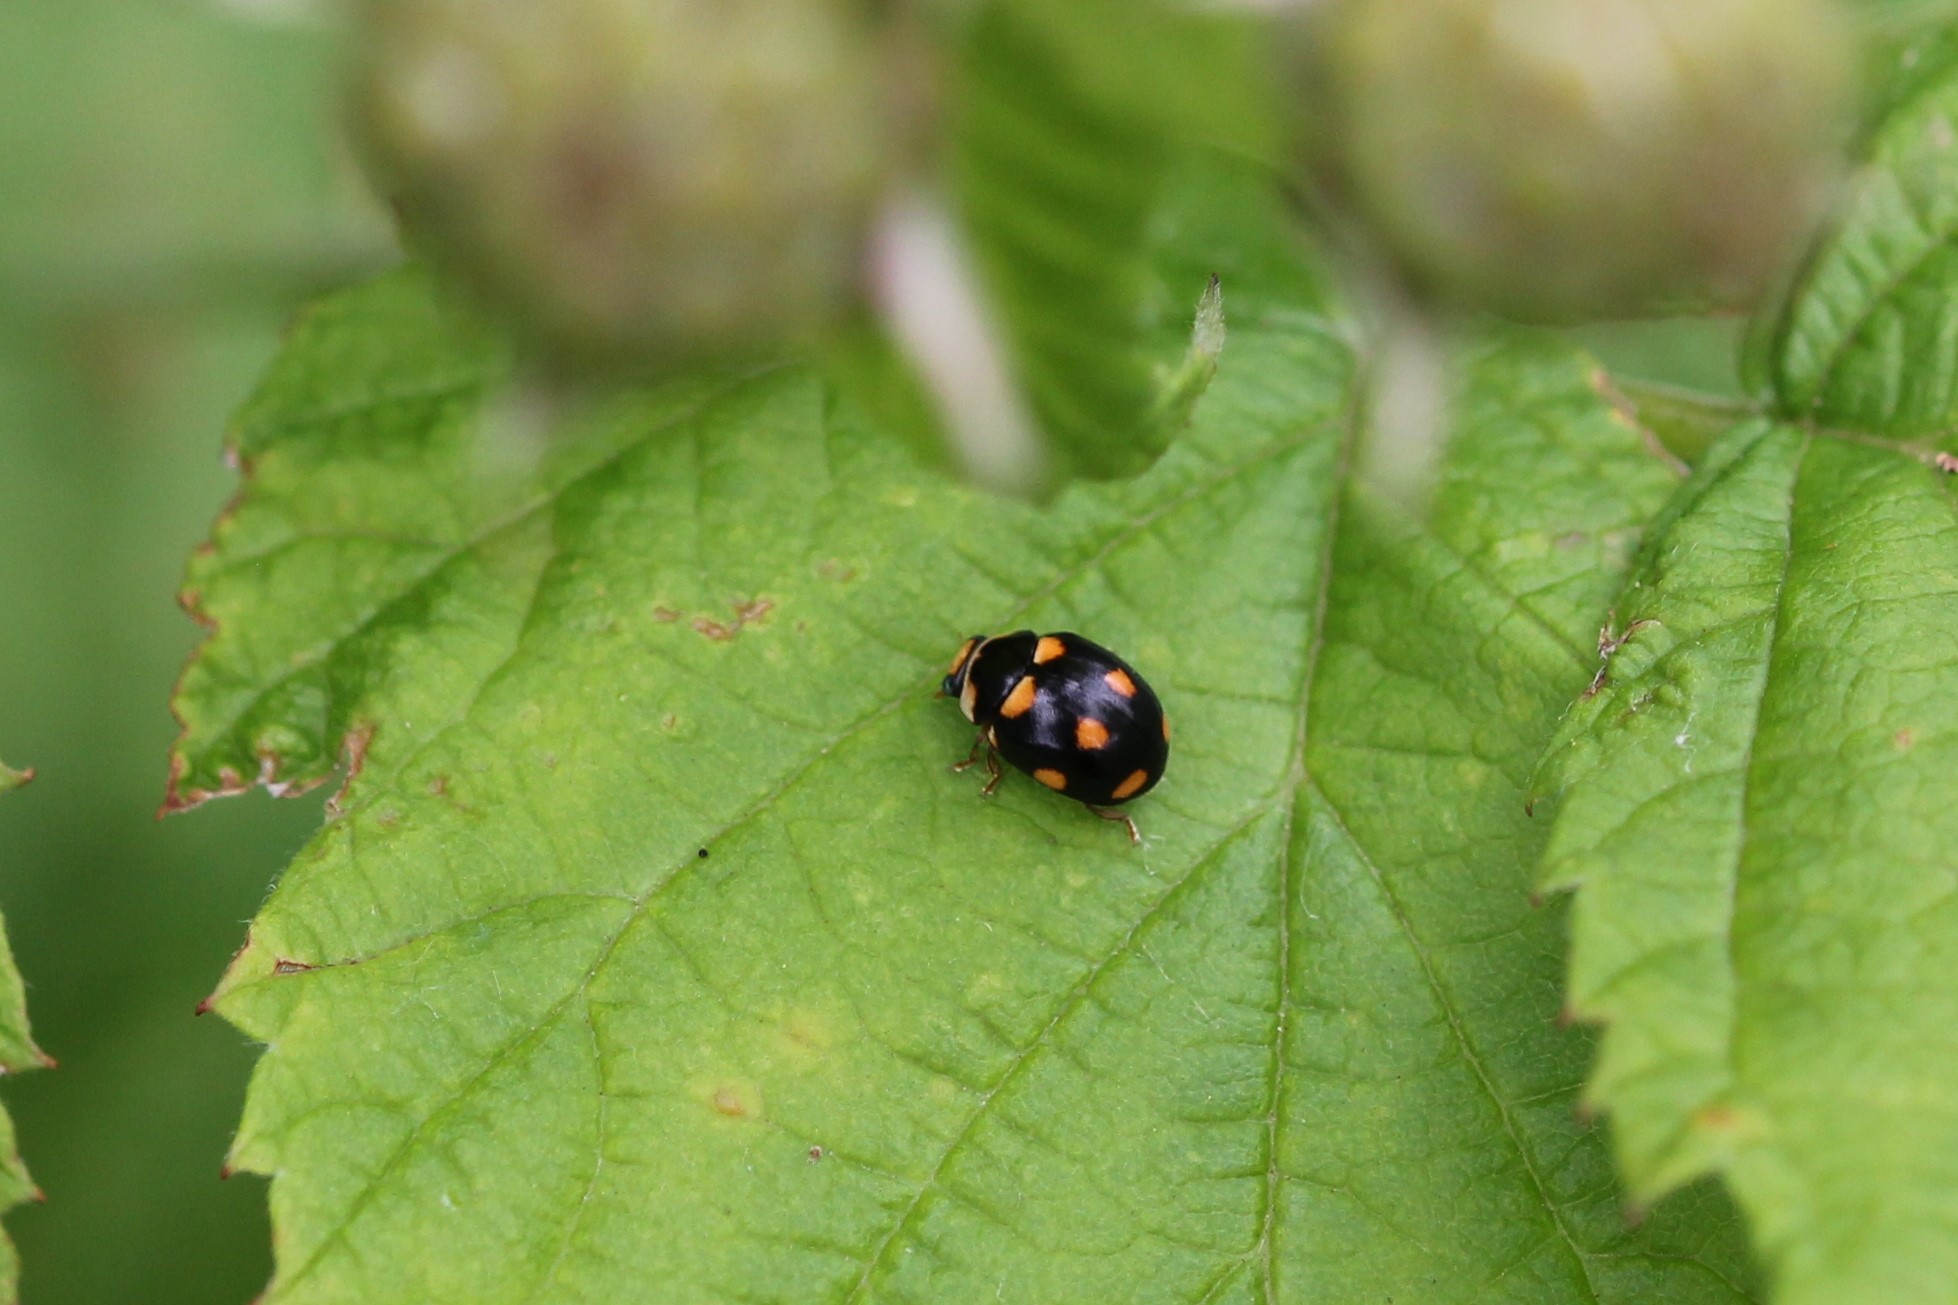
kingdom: Animalia
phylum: Arthropoda
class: Insecta
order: Coleoptera
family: Coccinellidae
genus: Brachiacantha
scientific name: Brachiacantha ursina
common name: Ursine spurleg lady beetle
